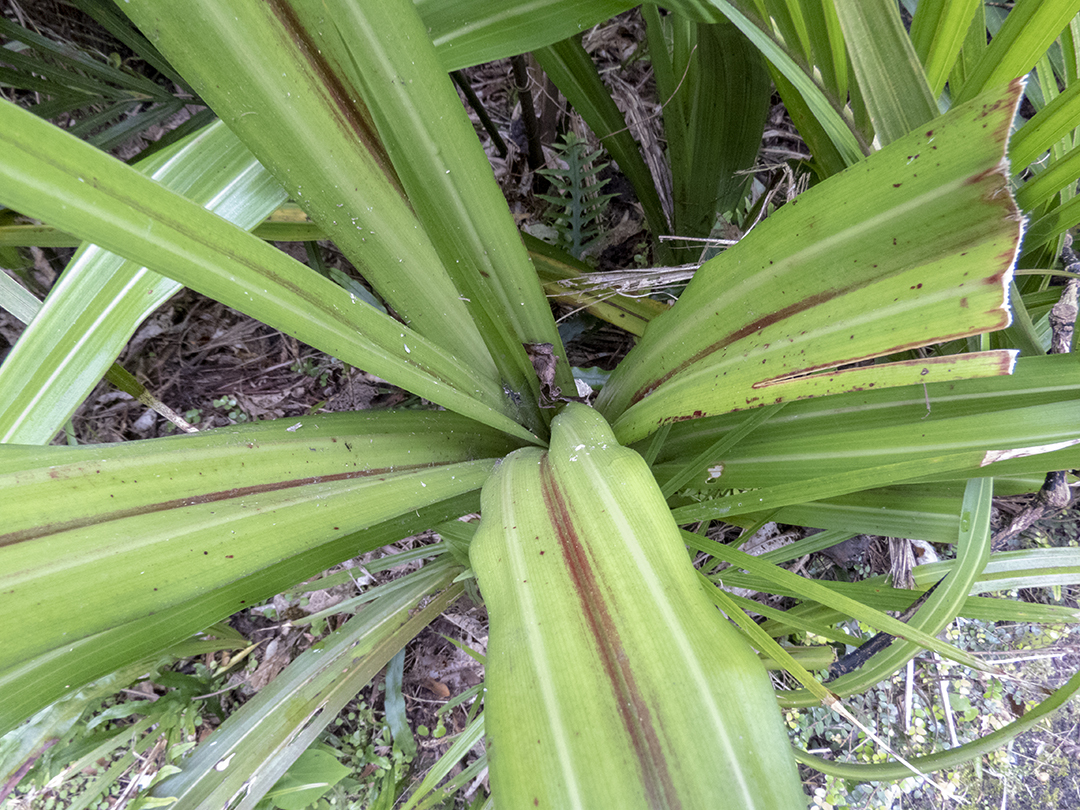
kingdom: Plantae
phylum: Tracheophyta
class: Liliopsida
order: Asparagales
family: Asteliaceae
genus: Astelia
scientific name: Astelia fragrans
